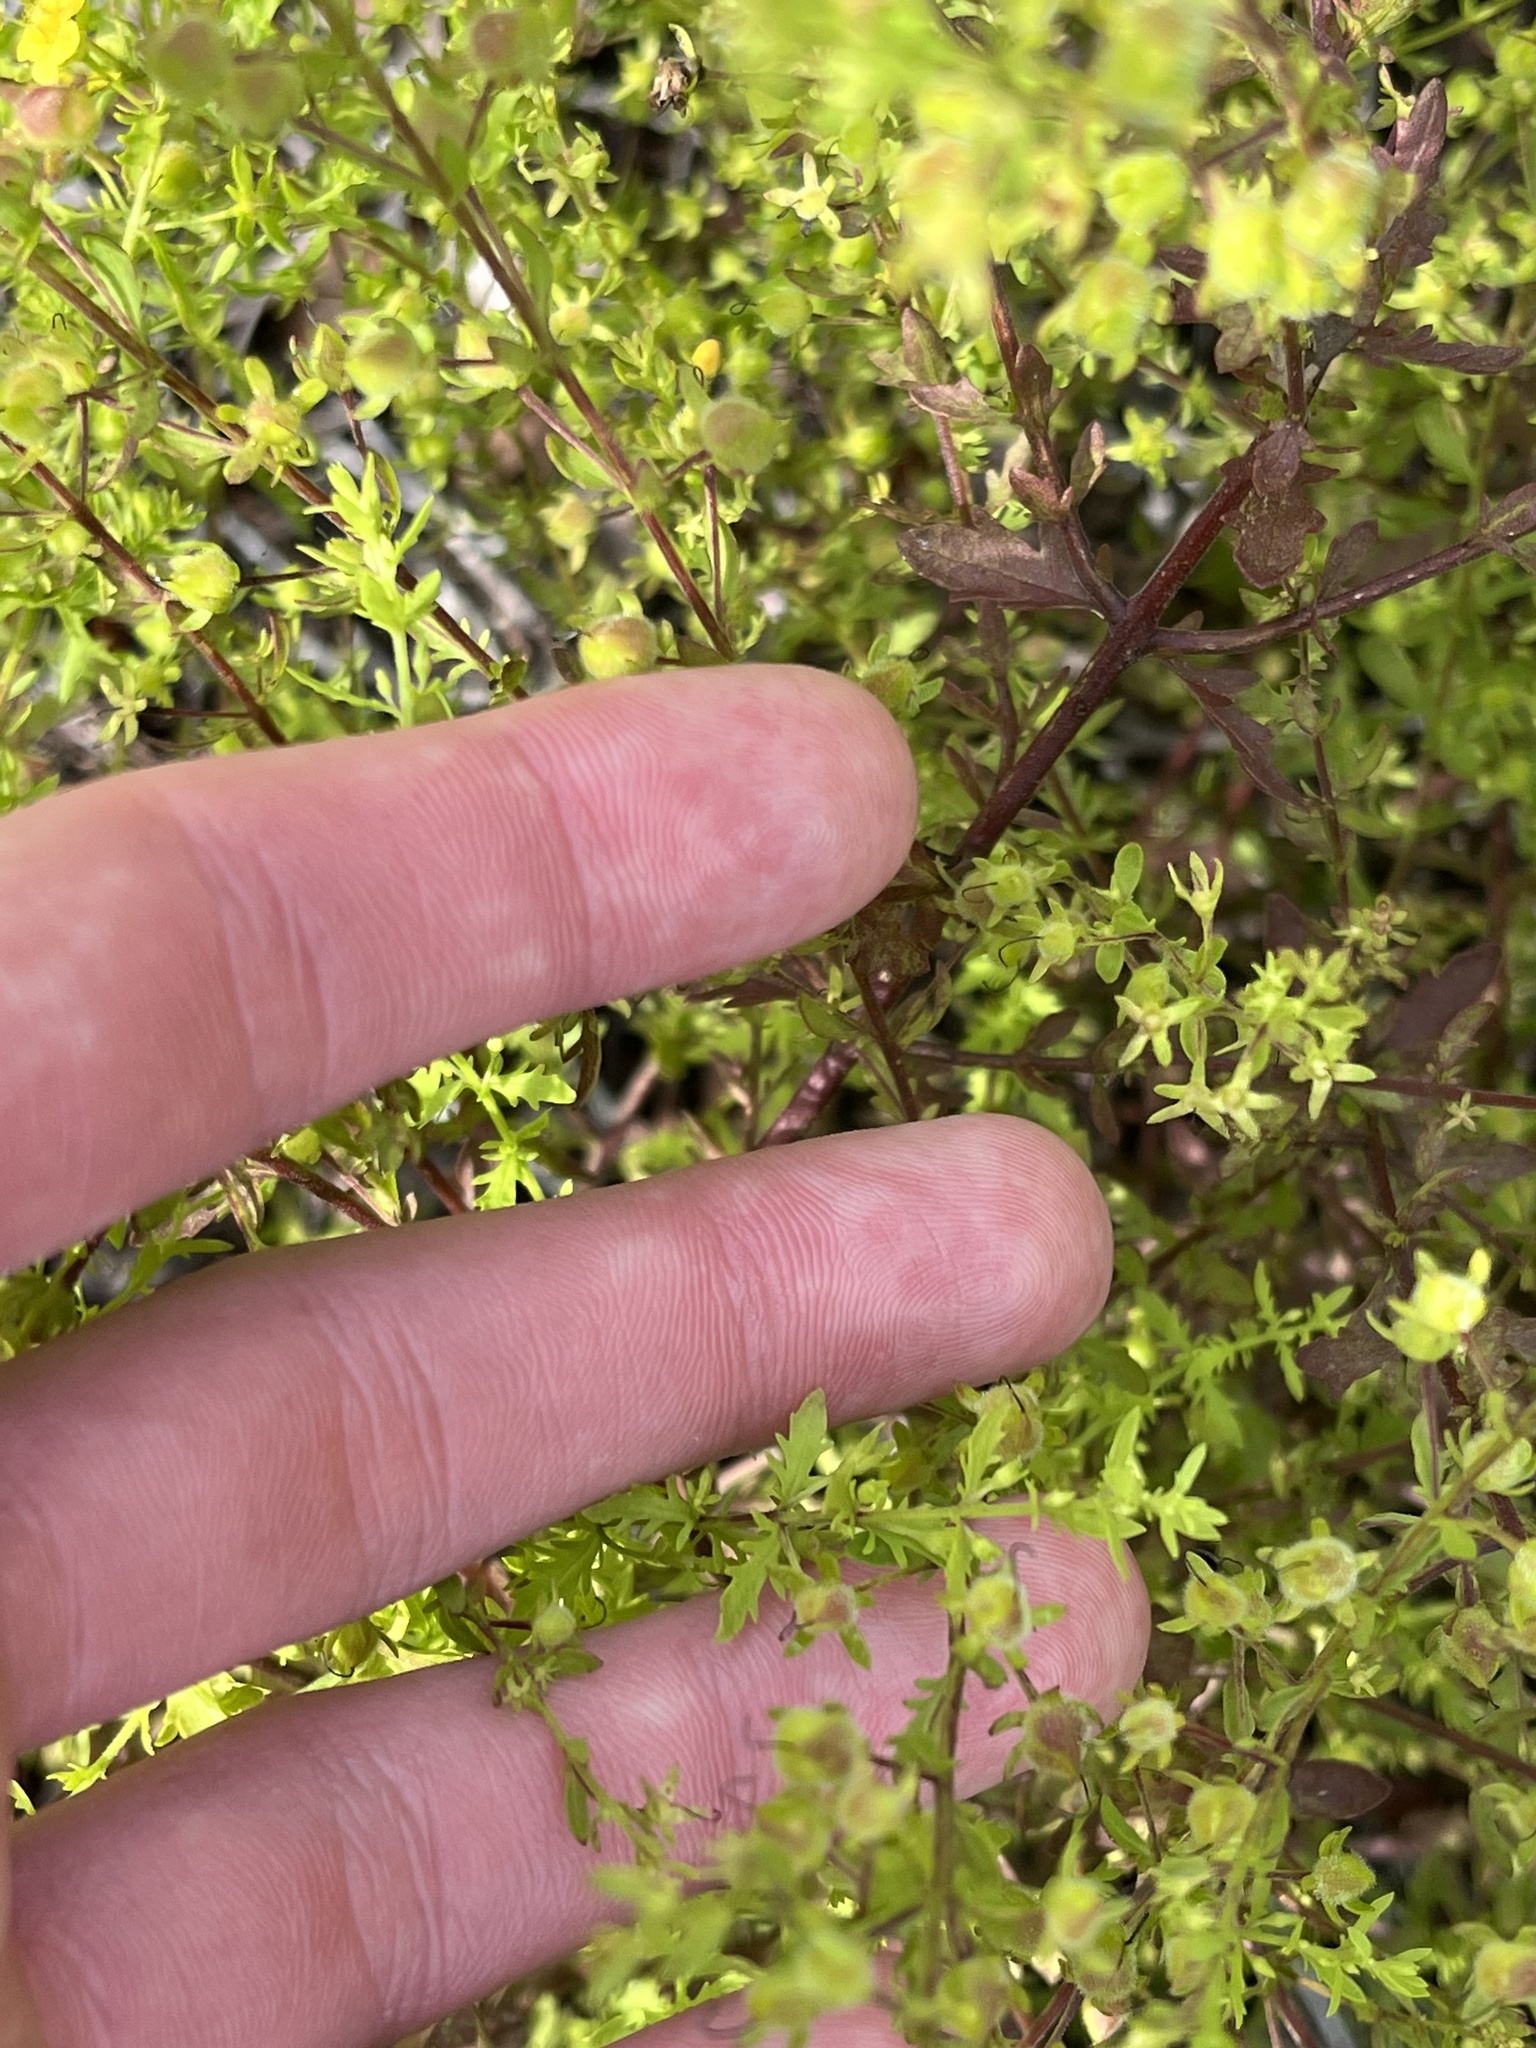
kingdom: Plantae
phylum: Tracheophyta
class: Magnoliopsida
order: Lamiales
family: Orobanchaceae
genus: Seymeria
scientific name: Seymeria pectinata
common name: Piedmont black-senna
